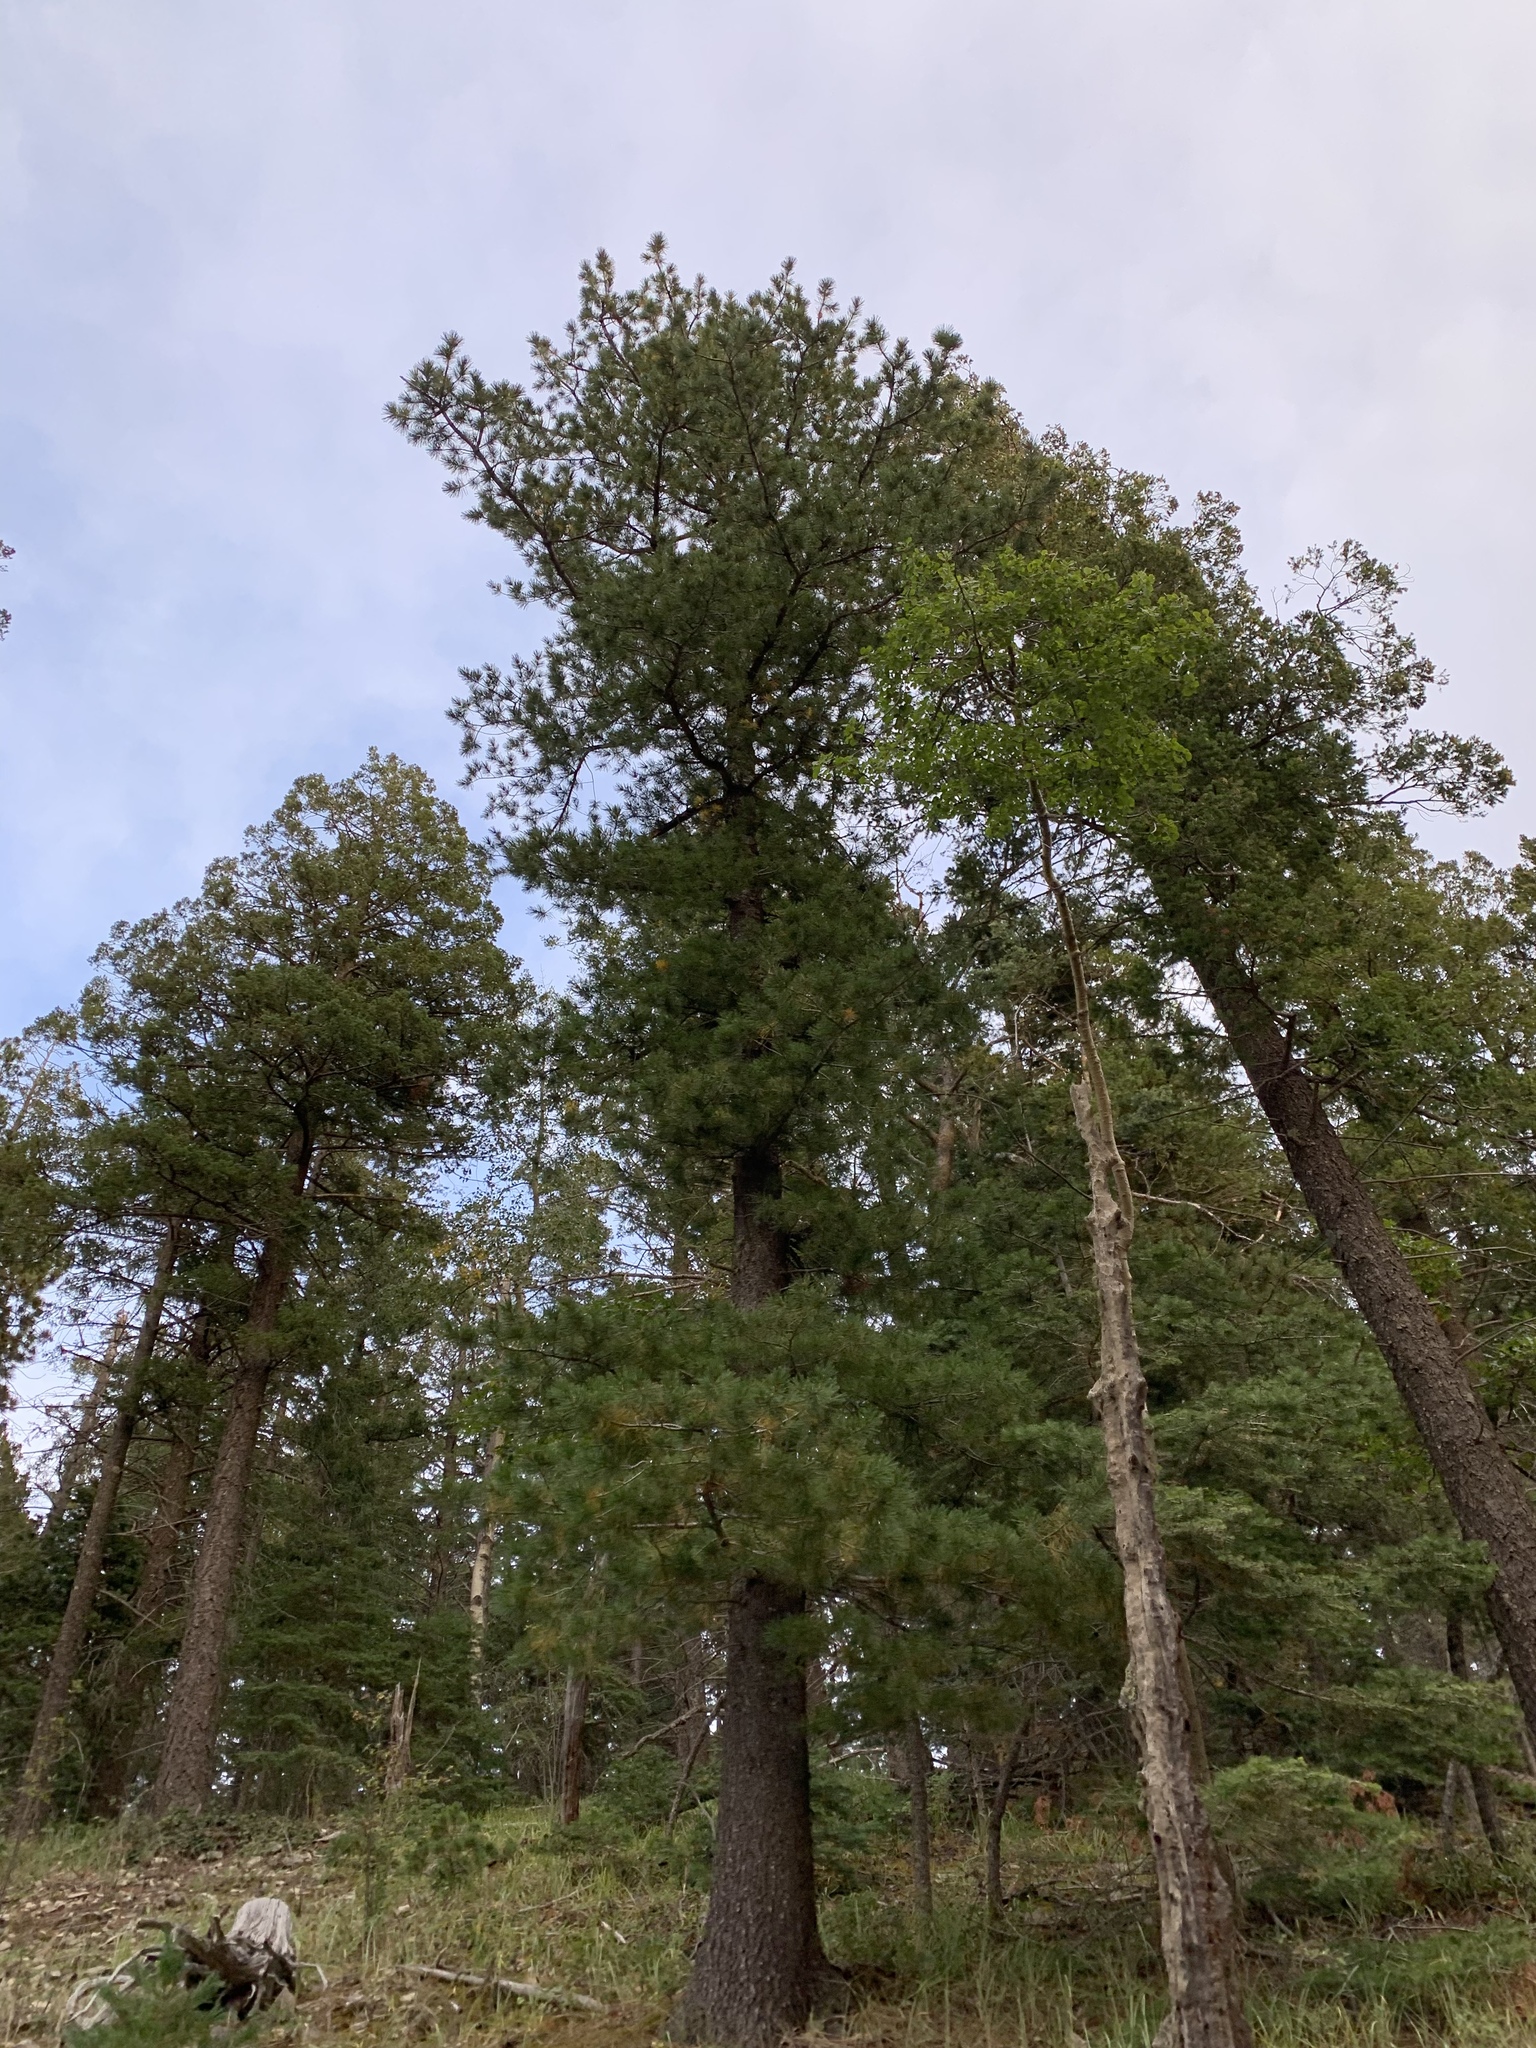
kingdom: Plantae
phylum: Tracheophyta
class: Pinopsida
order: Pinales
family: Pinaceae
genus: Pinus
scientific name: Pinus strobiformis
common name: Southwestern white pine
